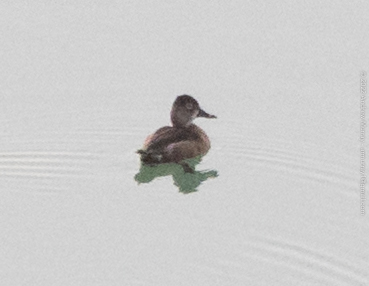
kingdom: Animalia
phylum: Chordata
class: Aves
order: Anseriformes
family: Anatidae
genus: Aythya
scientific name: Aythya collaris
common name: Ring-necked duck
